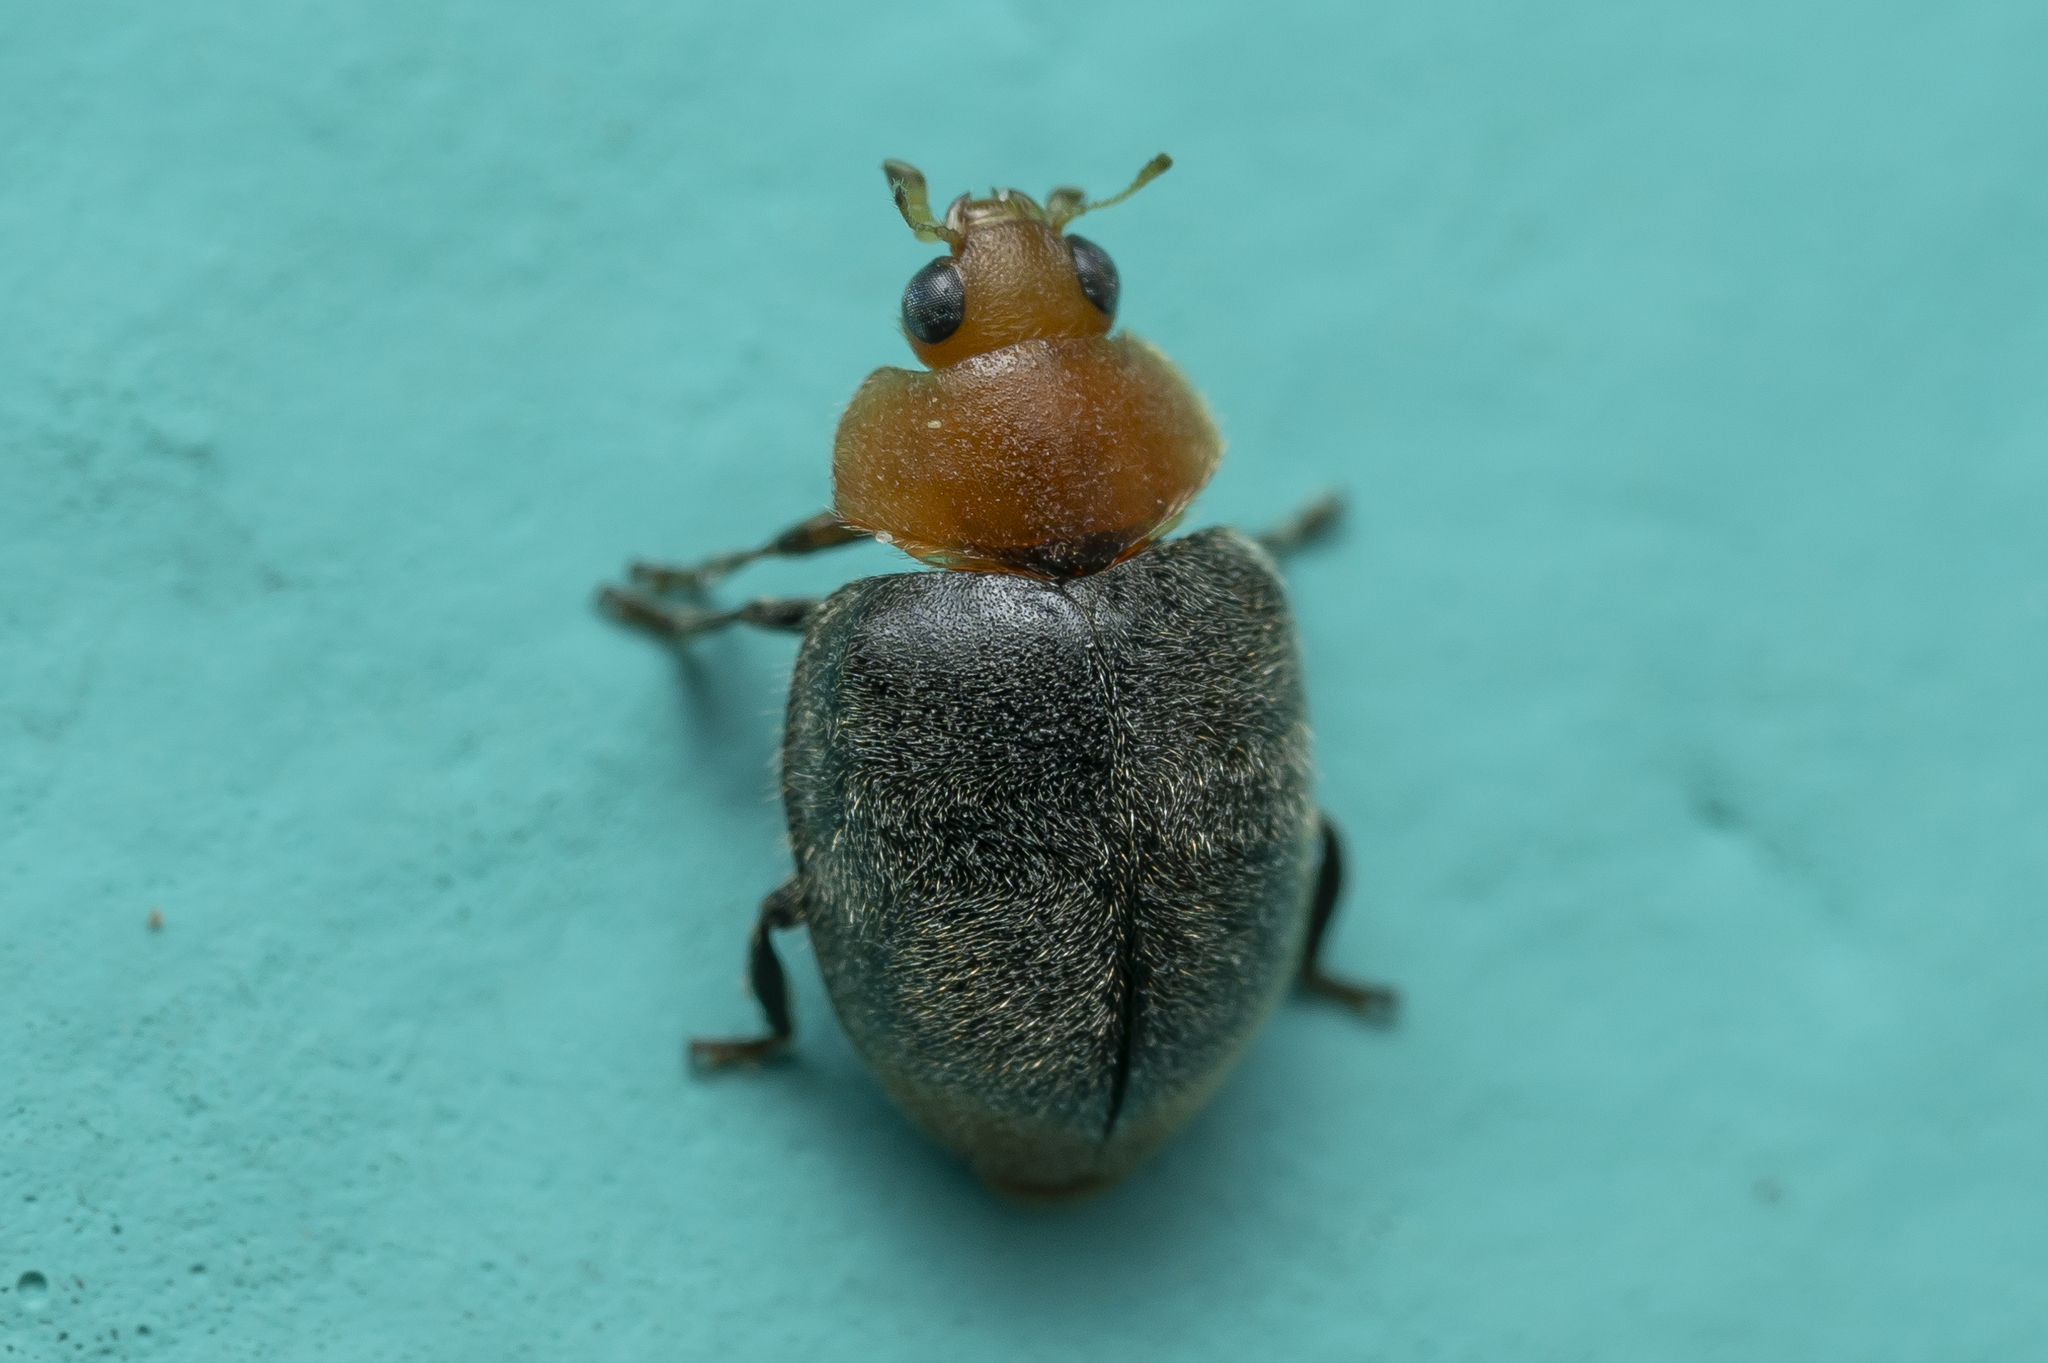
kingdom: Animalia
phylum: Arthropoda
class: Insecta
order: Coleoptera
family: Coccinellidae
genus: Cryptolaemus
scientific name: Cryptolaemus montrouzieri
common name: Mealybug destroyer
